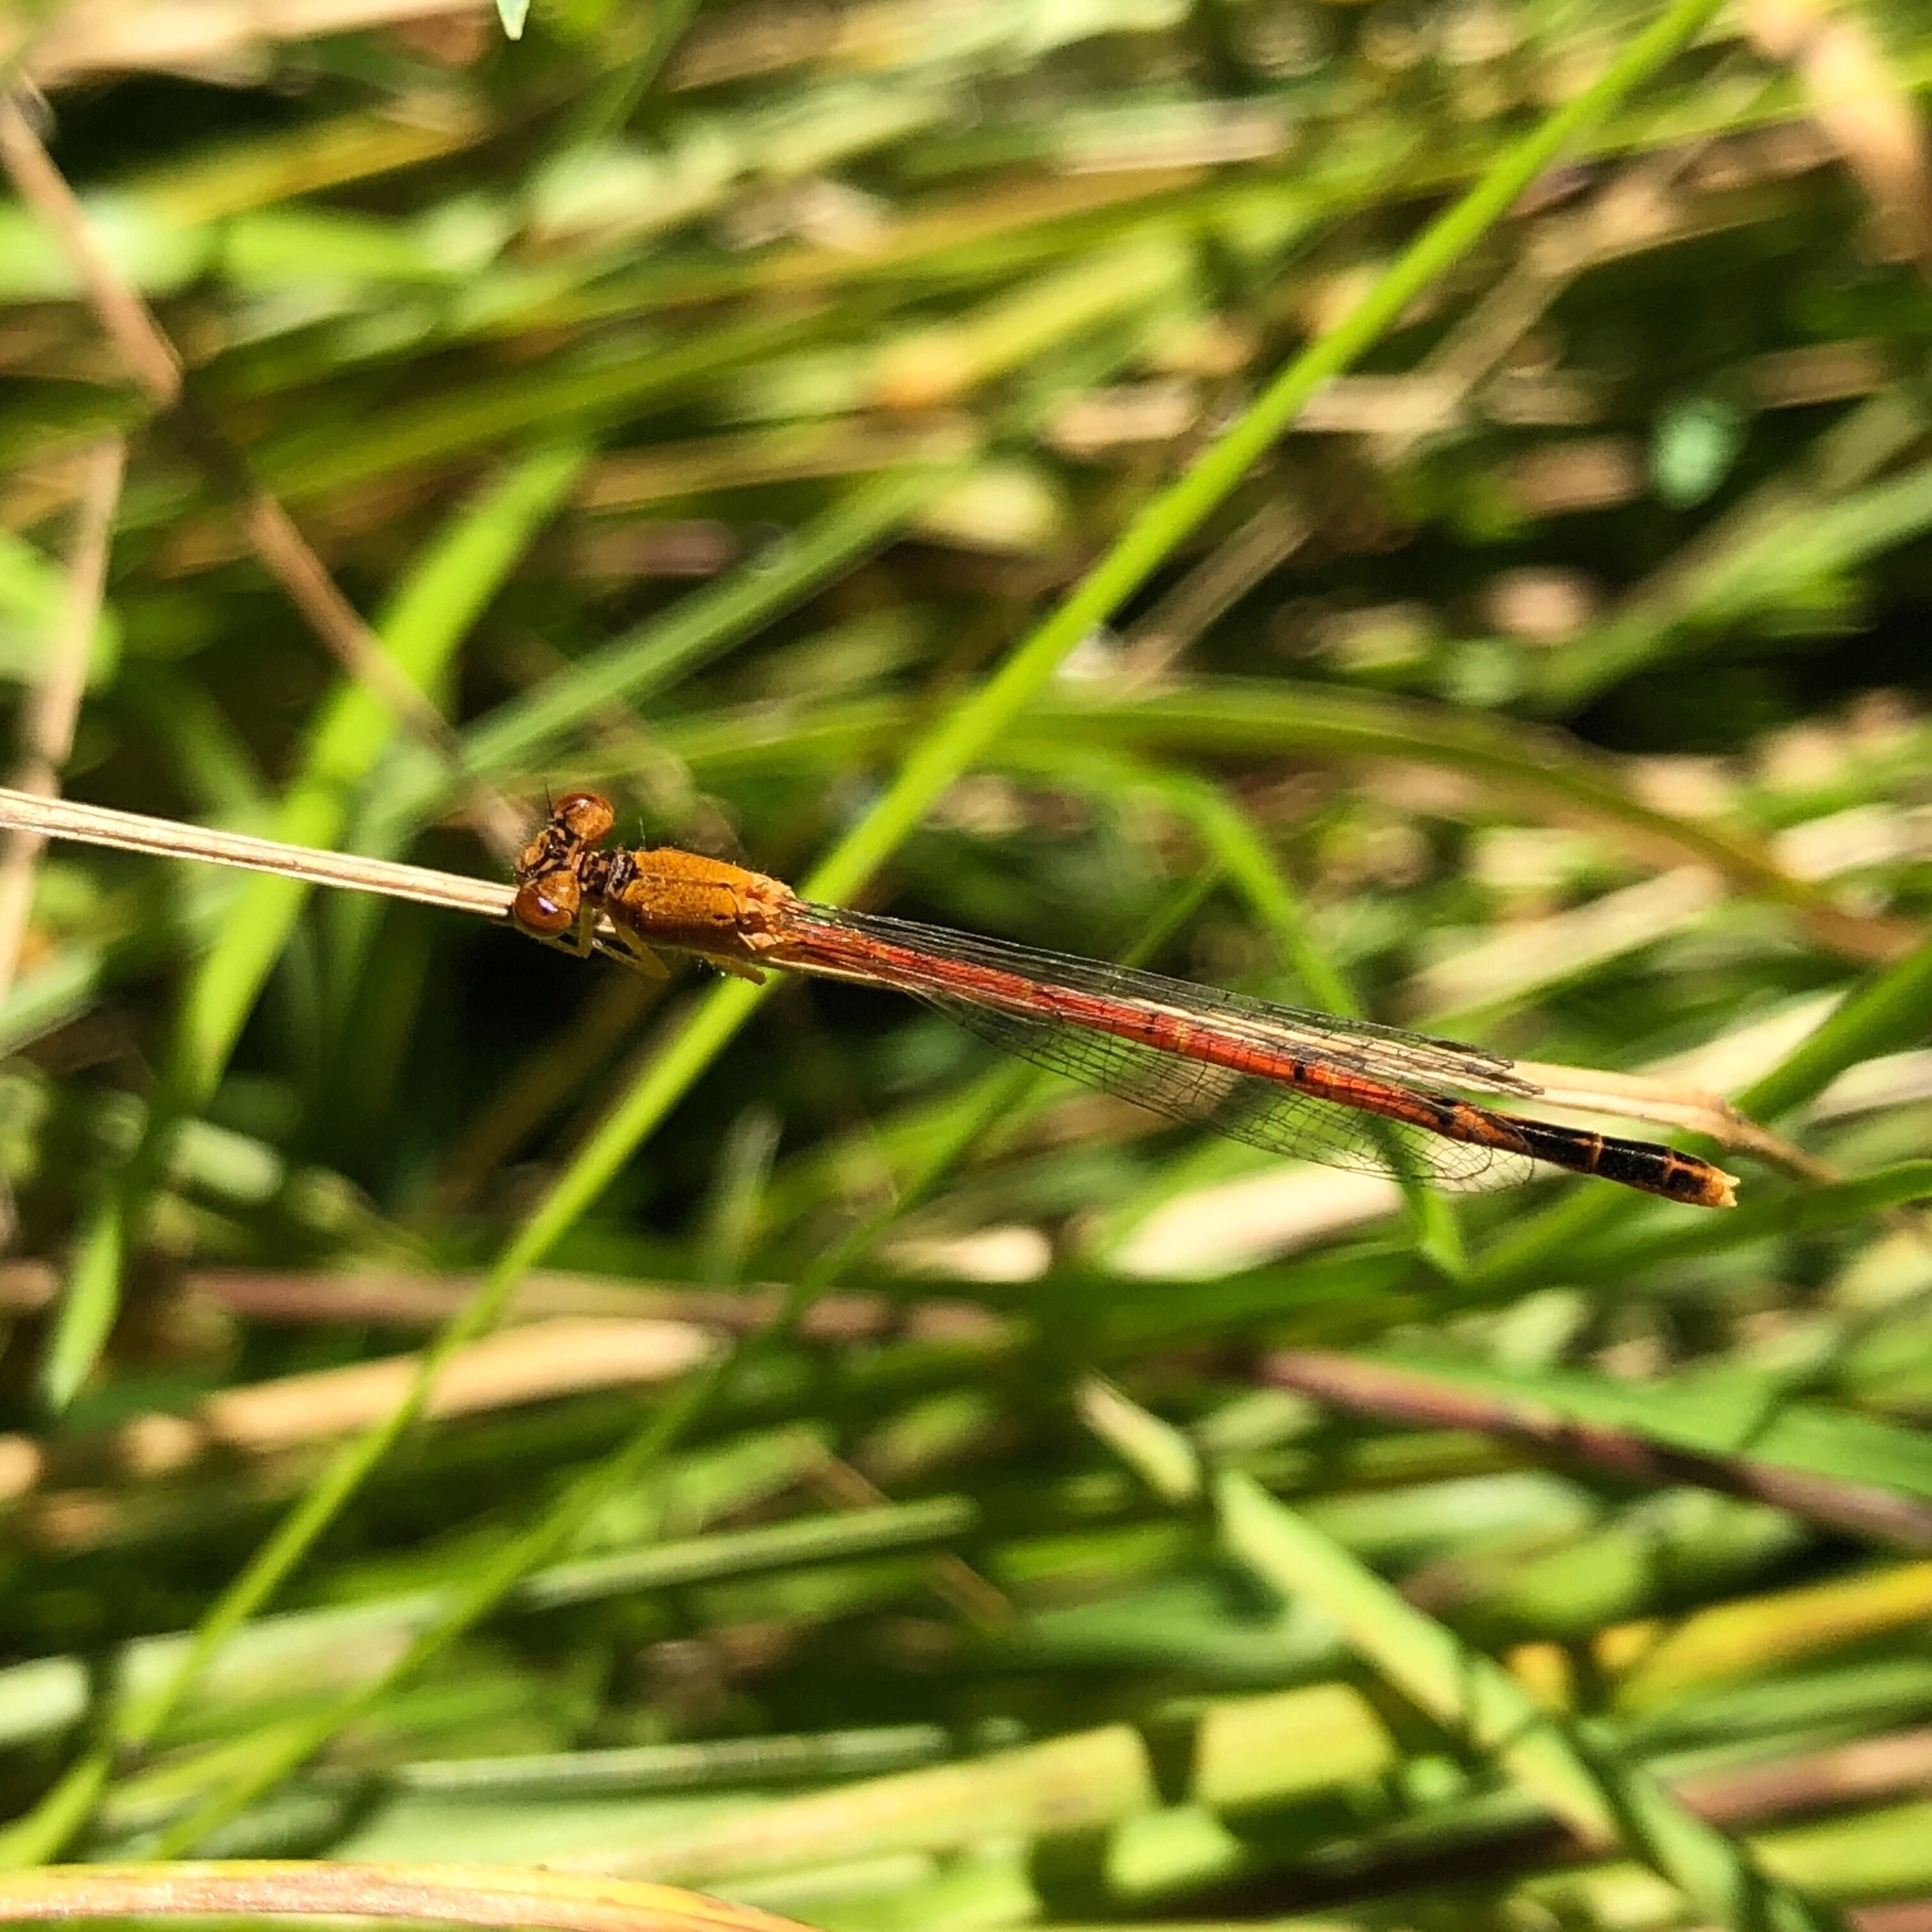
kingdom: Animalia
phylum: Arthropoda
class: Insecta
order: Odonata
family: Coenagrionidae
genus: Amphiagrion
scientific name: Amphiagrion saucium
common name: Eastern red damsel
